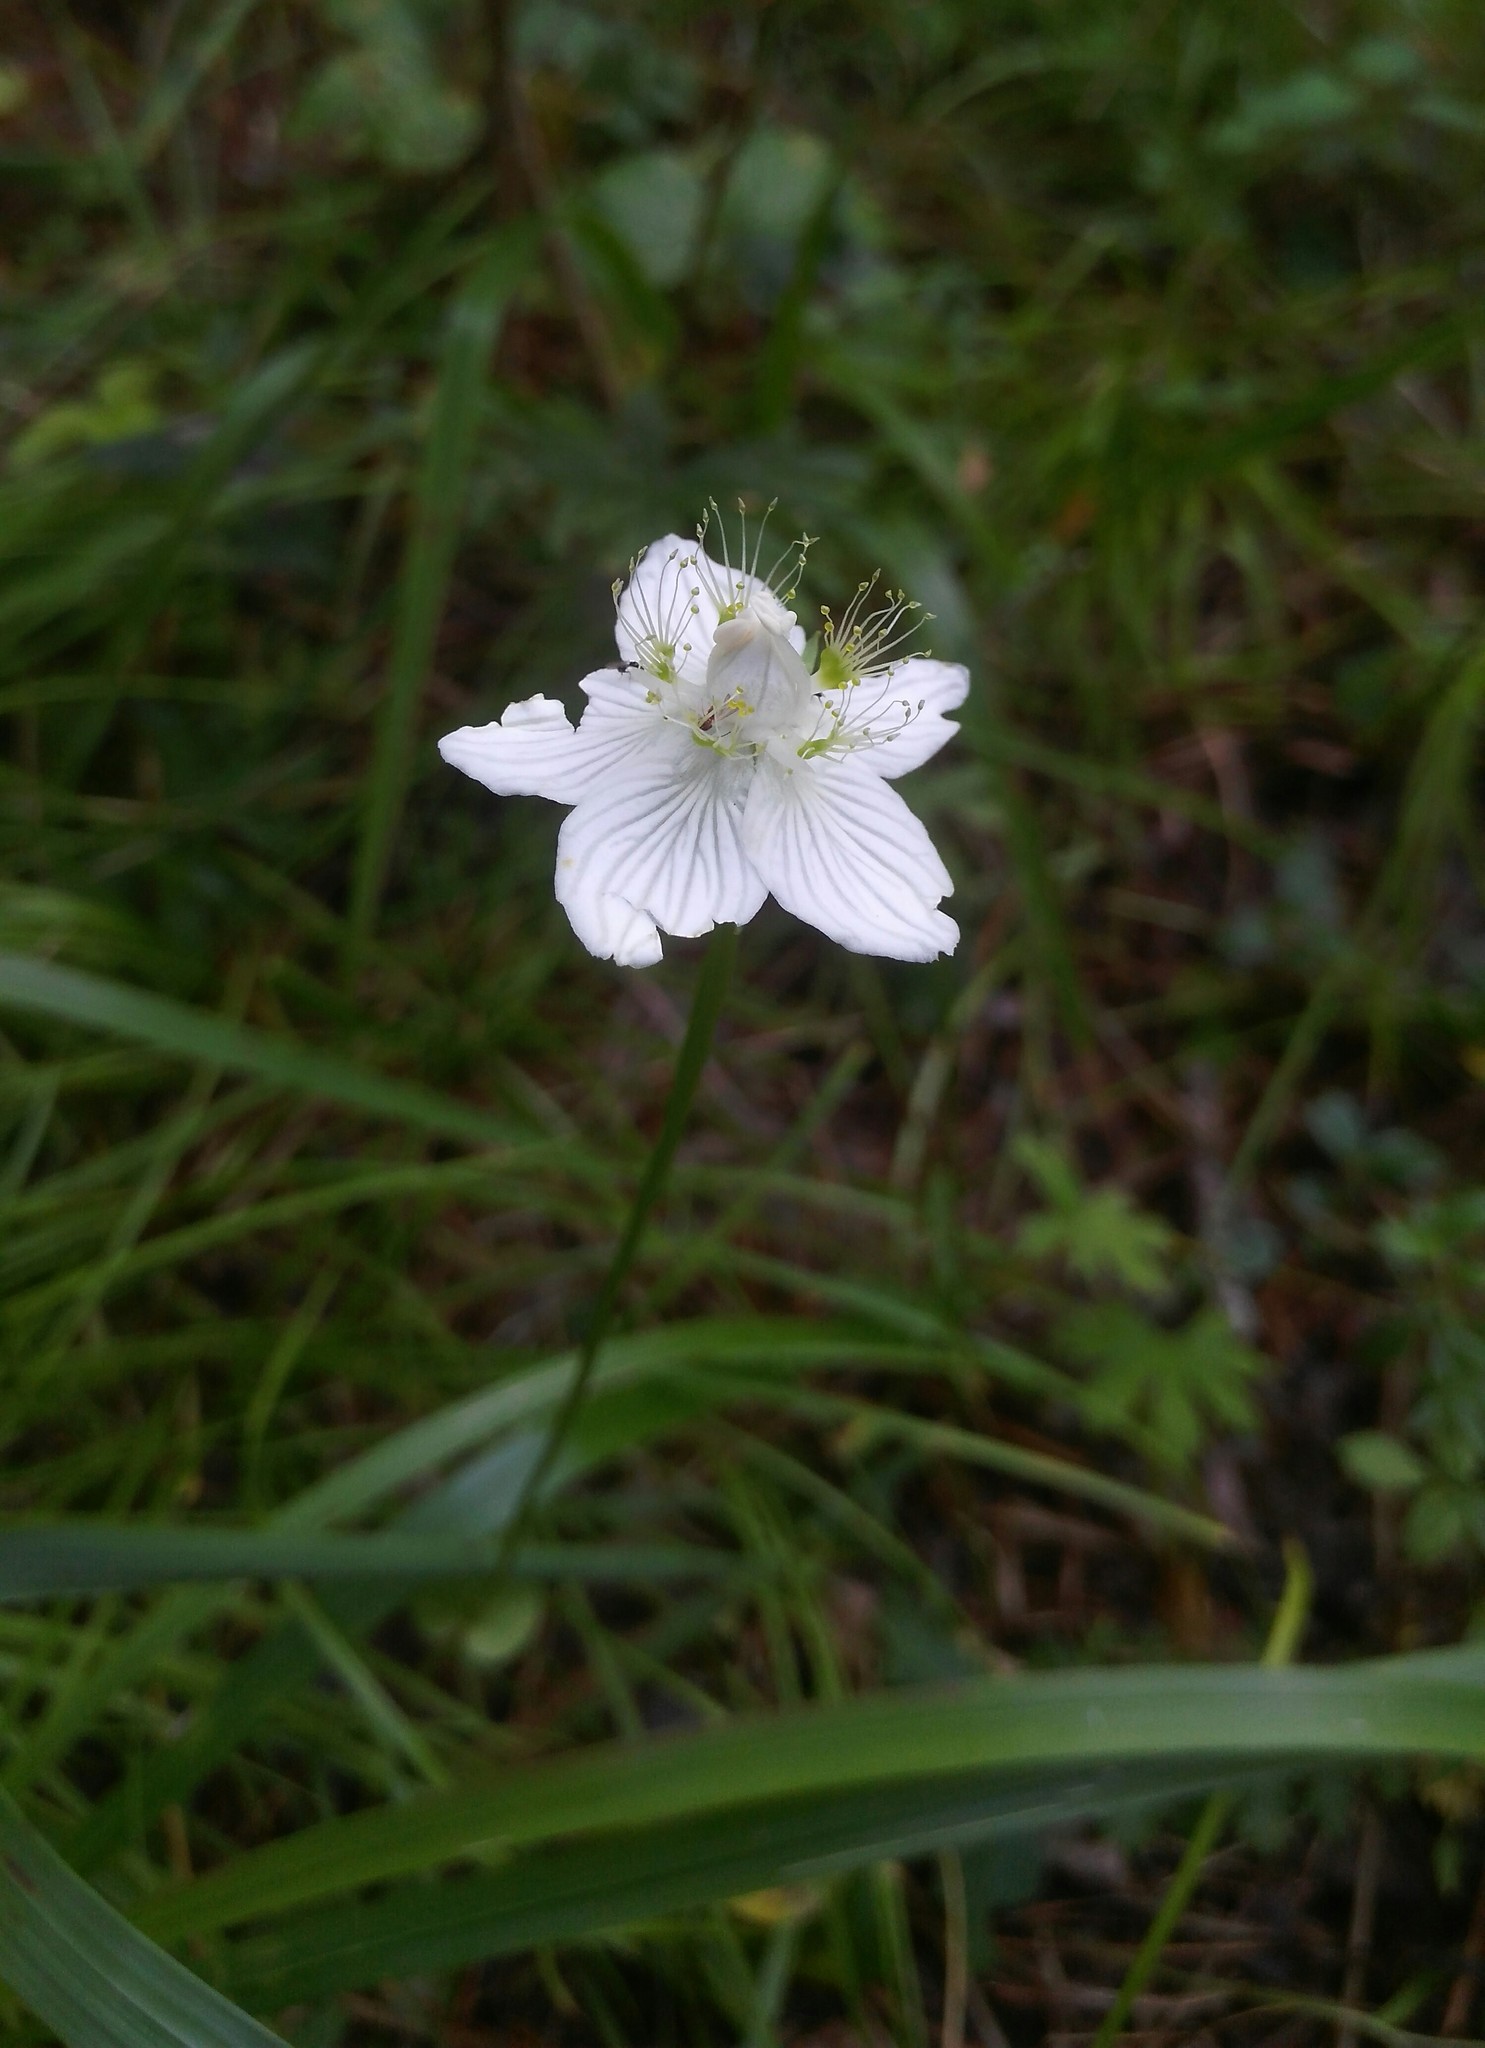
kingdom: Plantae
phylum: Tracheophyta
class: Magnoliopsida
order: Celastrales
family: Parnassiaceae
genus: Parnassia
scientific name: Parnassia palustris
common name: Grass-of-parnassus
